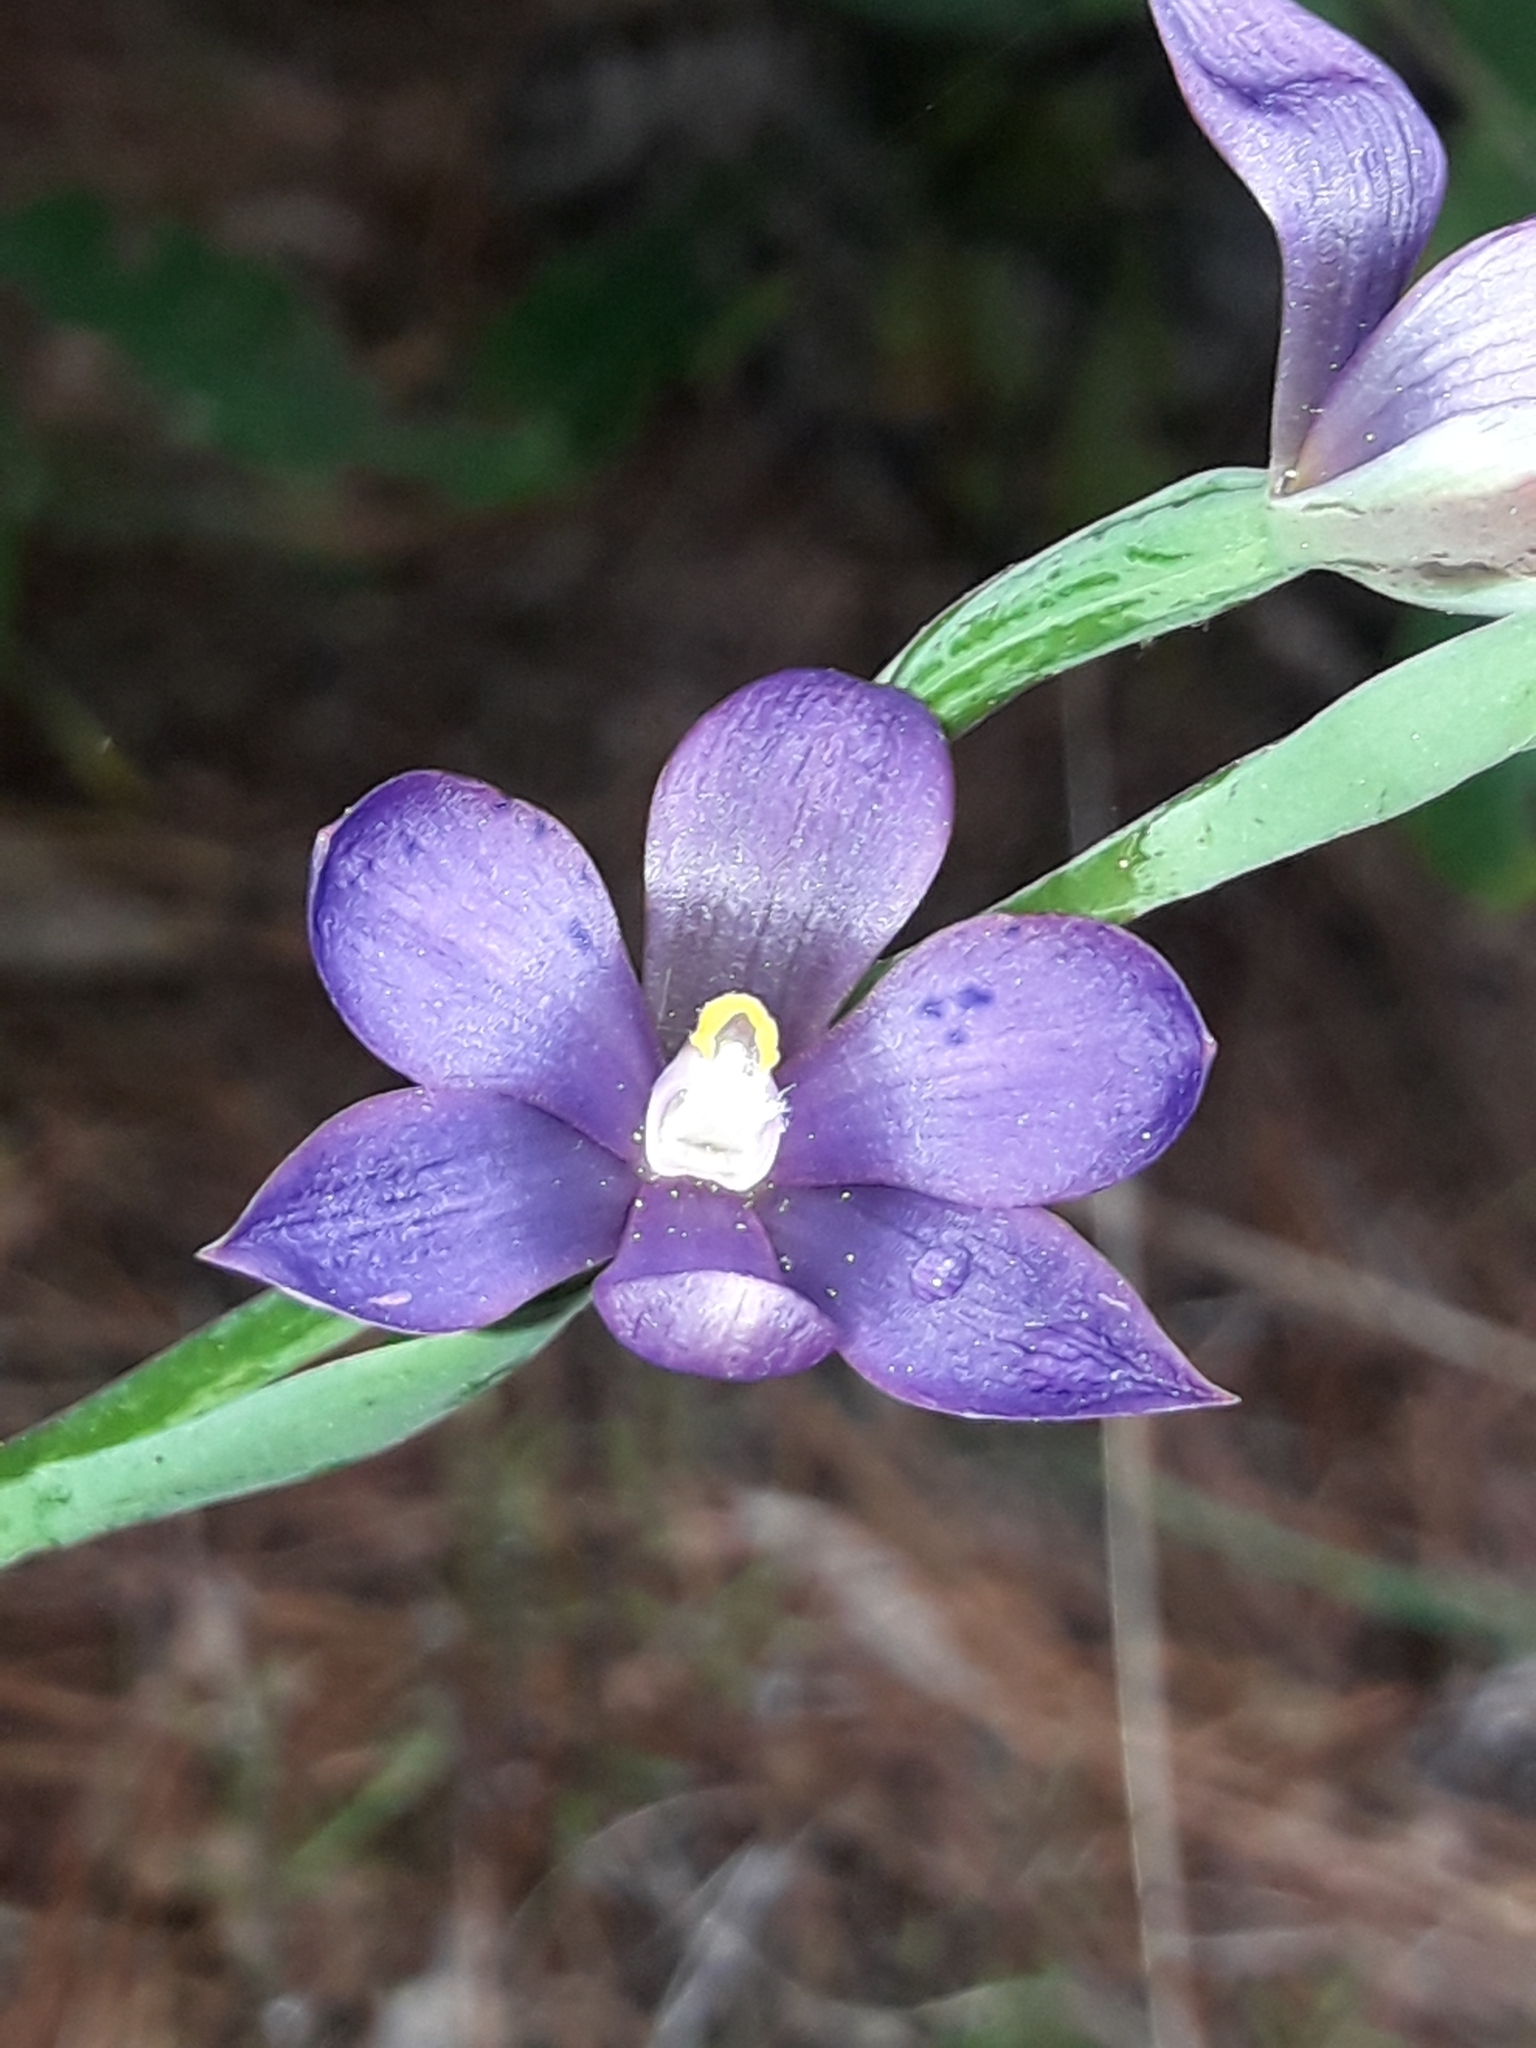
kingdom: Plantae
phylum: Tracheophyta
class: Liliopsida
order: Asparagales
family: Orchidaceae
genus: Thelymitra
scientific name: Thelymitra nervosa
